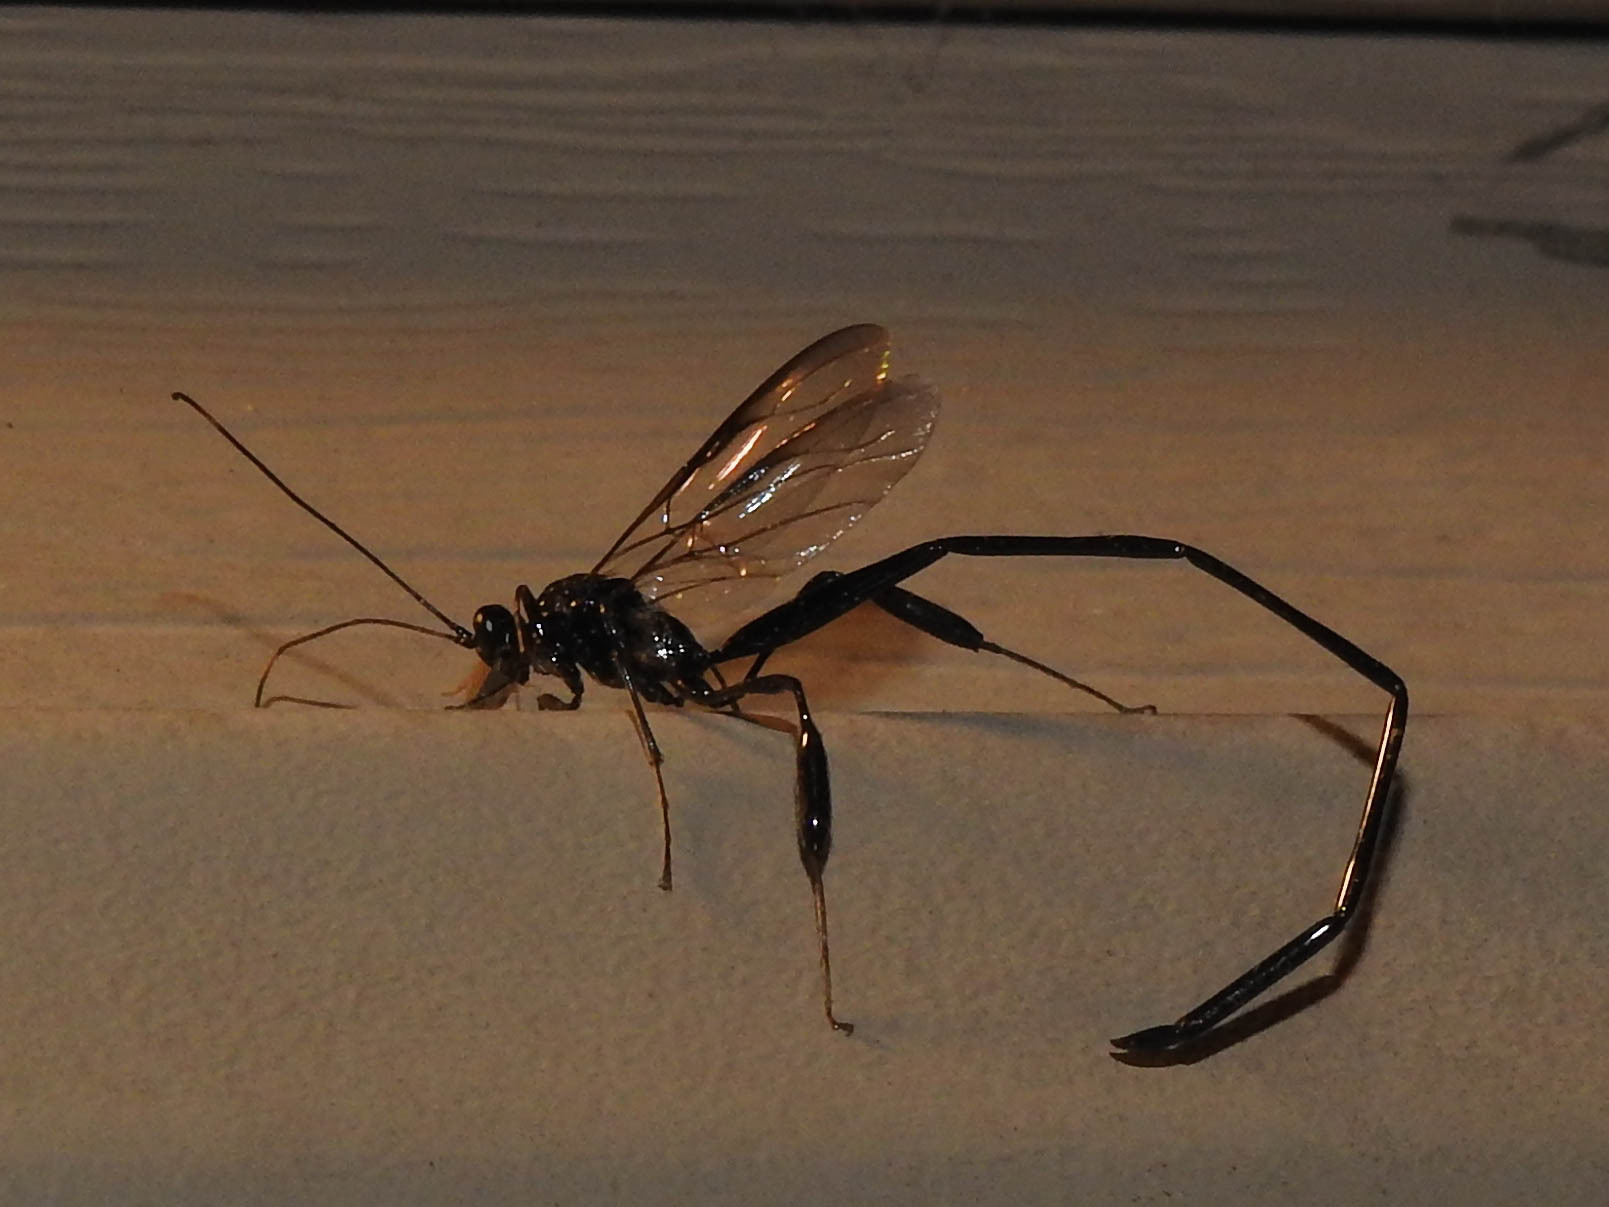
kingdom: Animalia
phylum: Arthropoda
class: Insecta
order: Hymenoptera
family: Pelecinidae
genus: Pelecinus
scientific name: Pelecinus polyturator
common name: American pelecinid wasp
